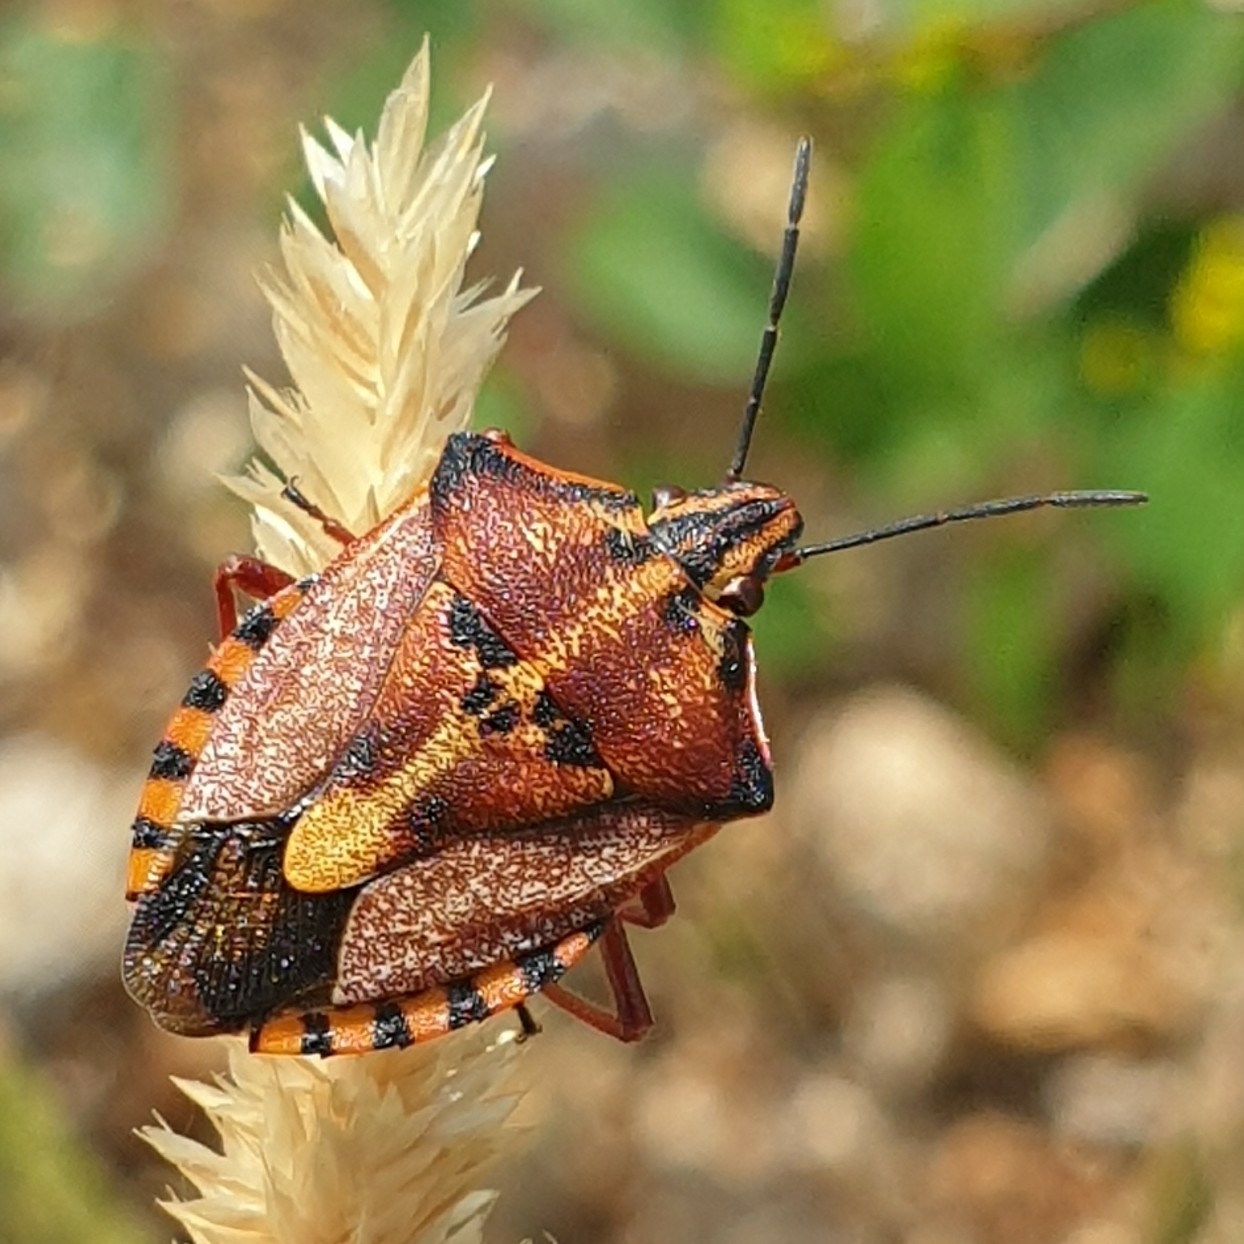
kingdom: Animalia
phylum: Arthropoda
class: Insecta
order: Hemiptera
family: Pentatomidae
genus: Carpocoris
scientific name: Carpocoris mediterraneus
